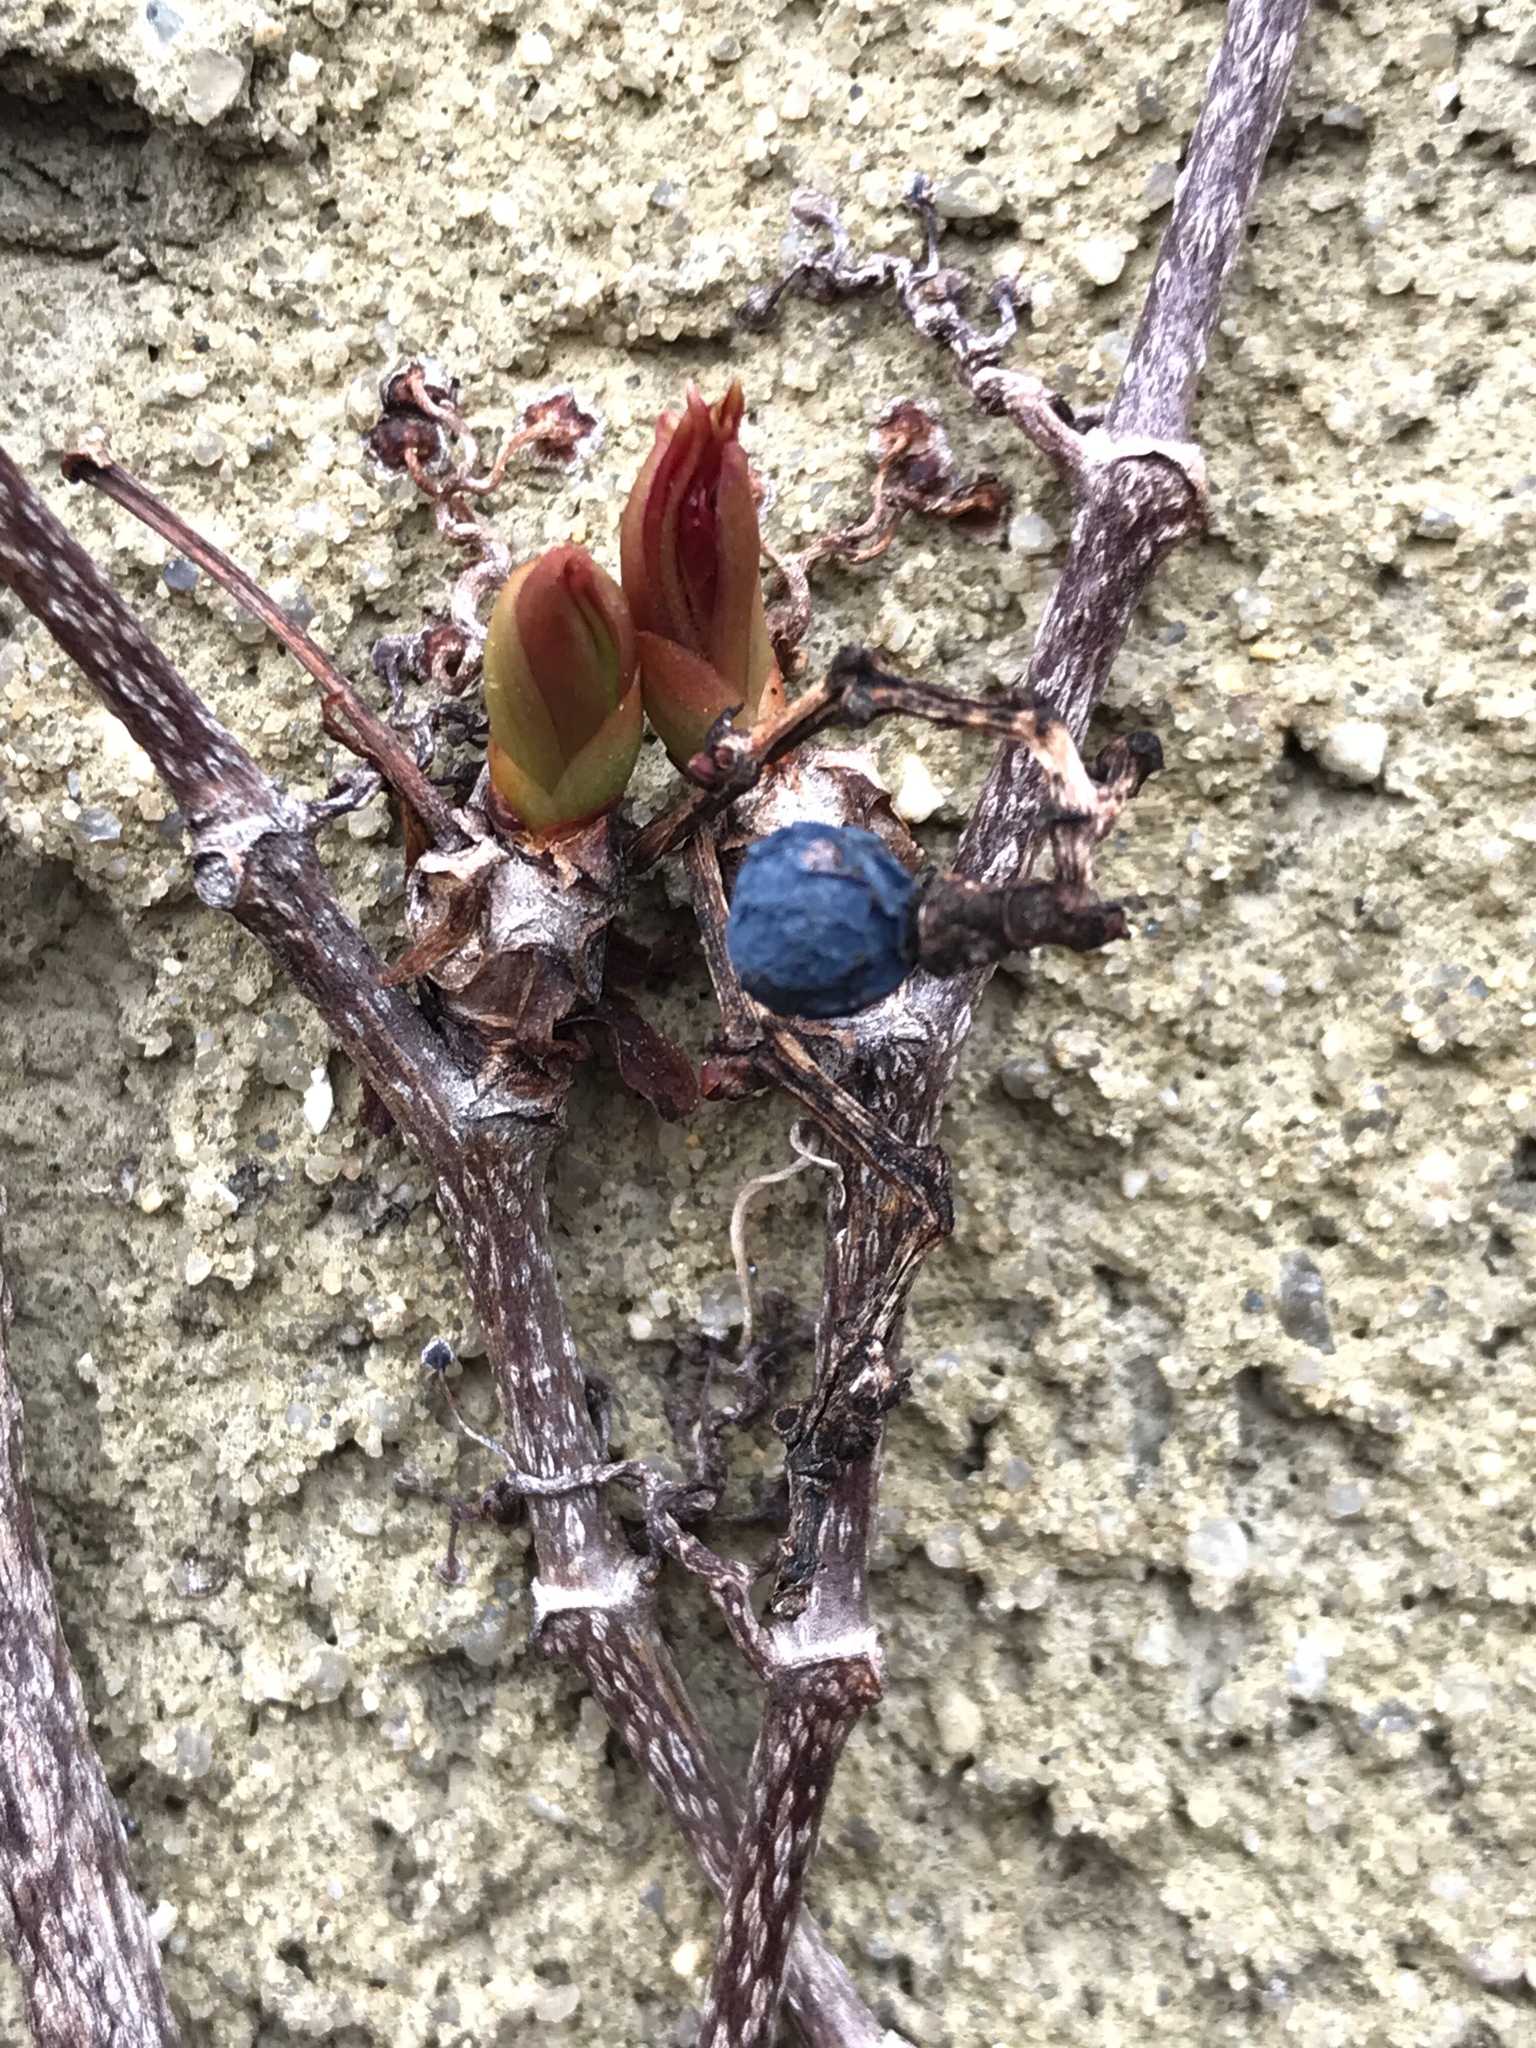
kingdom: Plantae
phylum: Tracheophyta
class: Magnoliopsida
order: Vitales
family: Vitaceae
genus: Parthenocissus
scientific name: Parthenocissus tricuspidata
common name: Boston ivy
